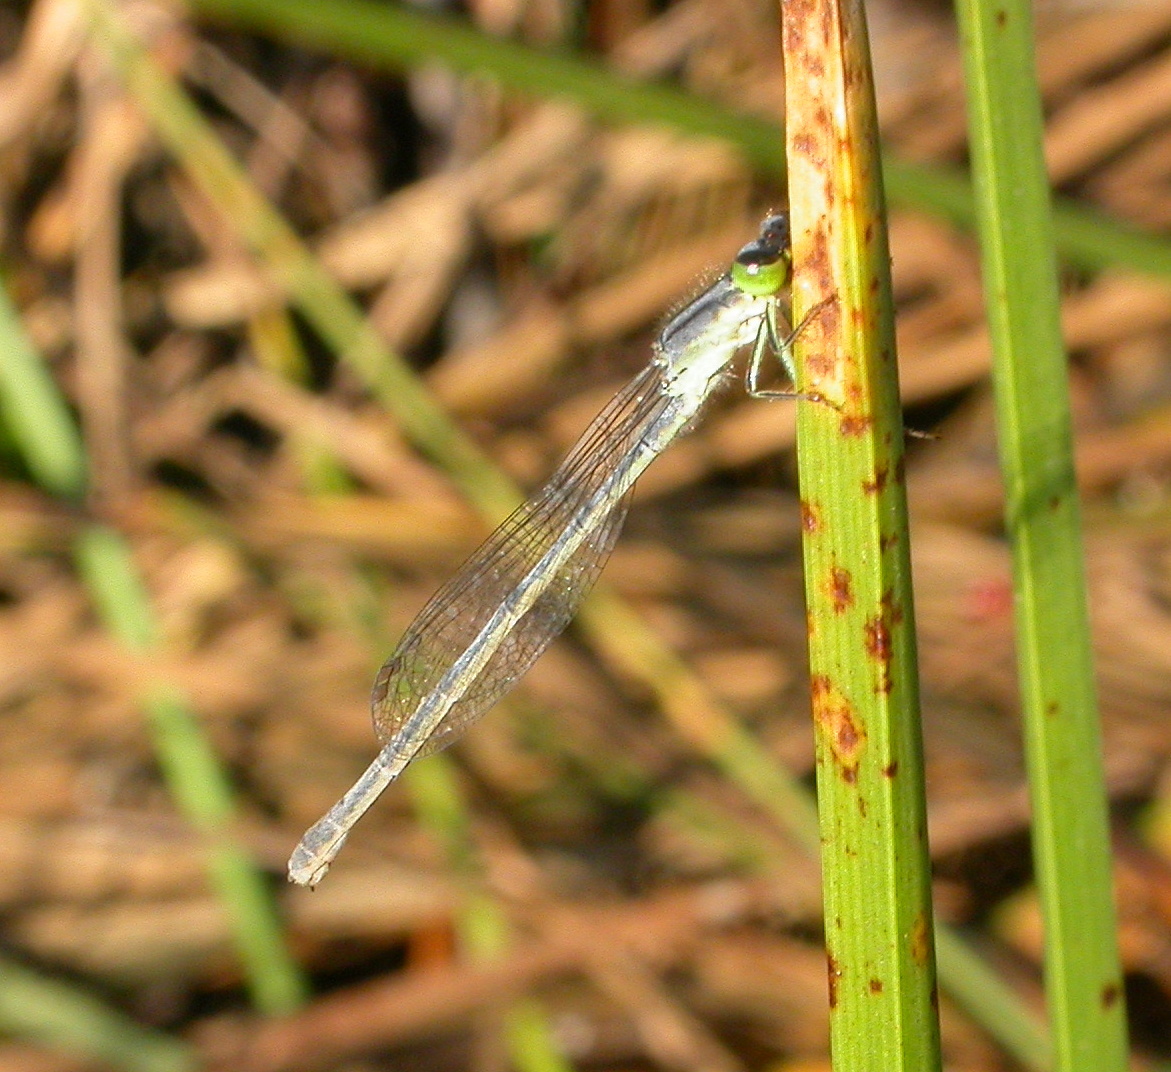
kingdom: Animalia
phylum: Arthropoda
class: Insecta
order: Odonata
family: Coenagrionidae
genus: Ischnura
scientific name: Ischnura
